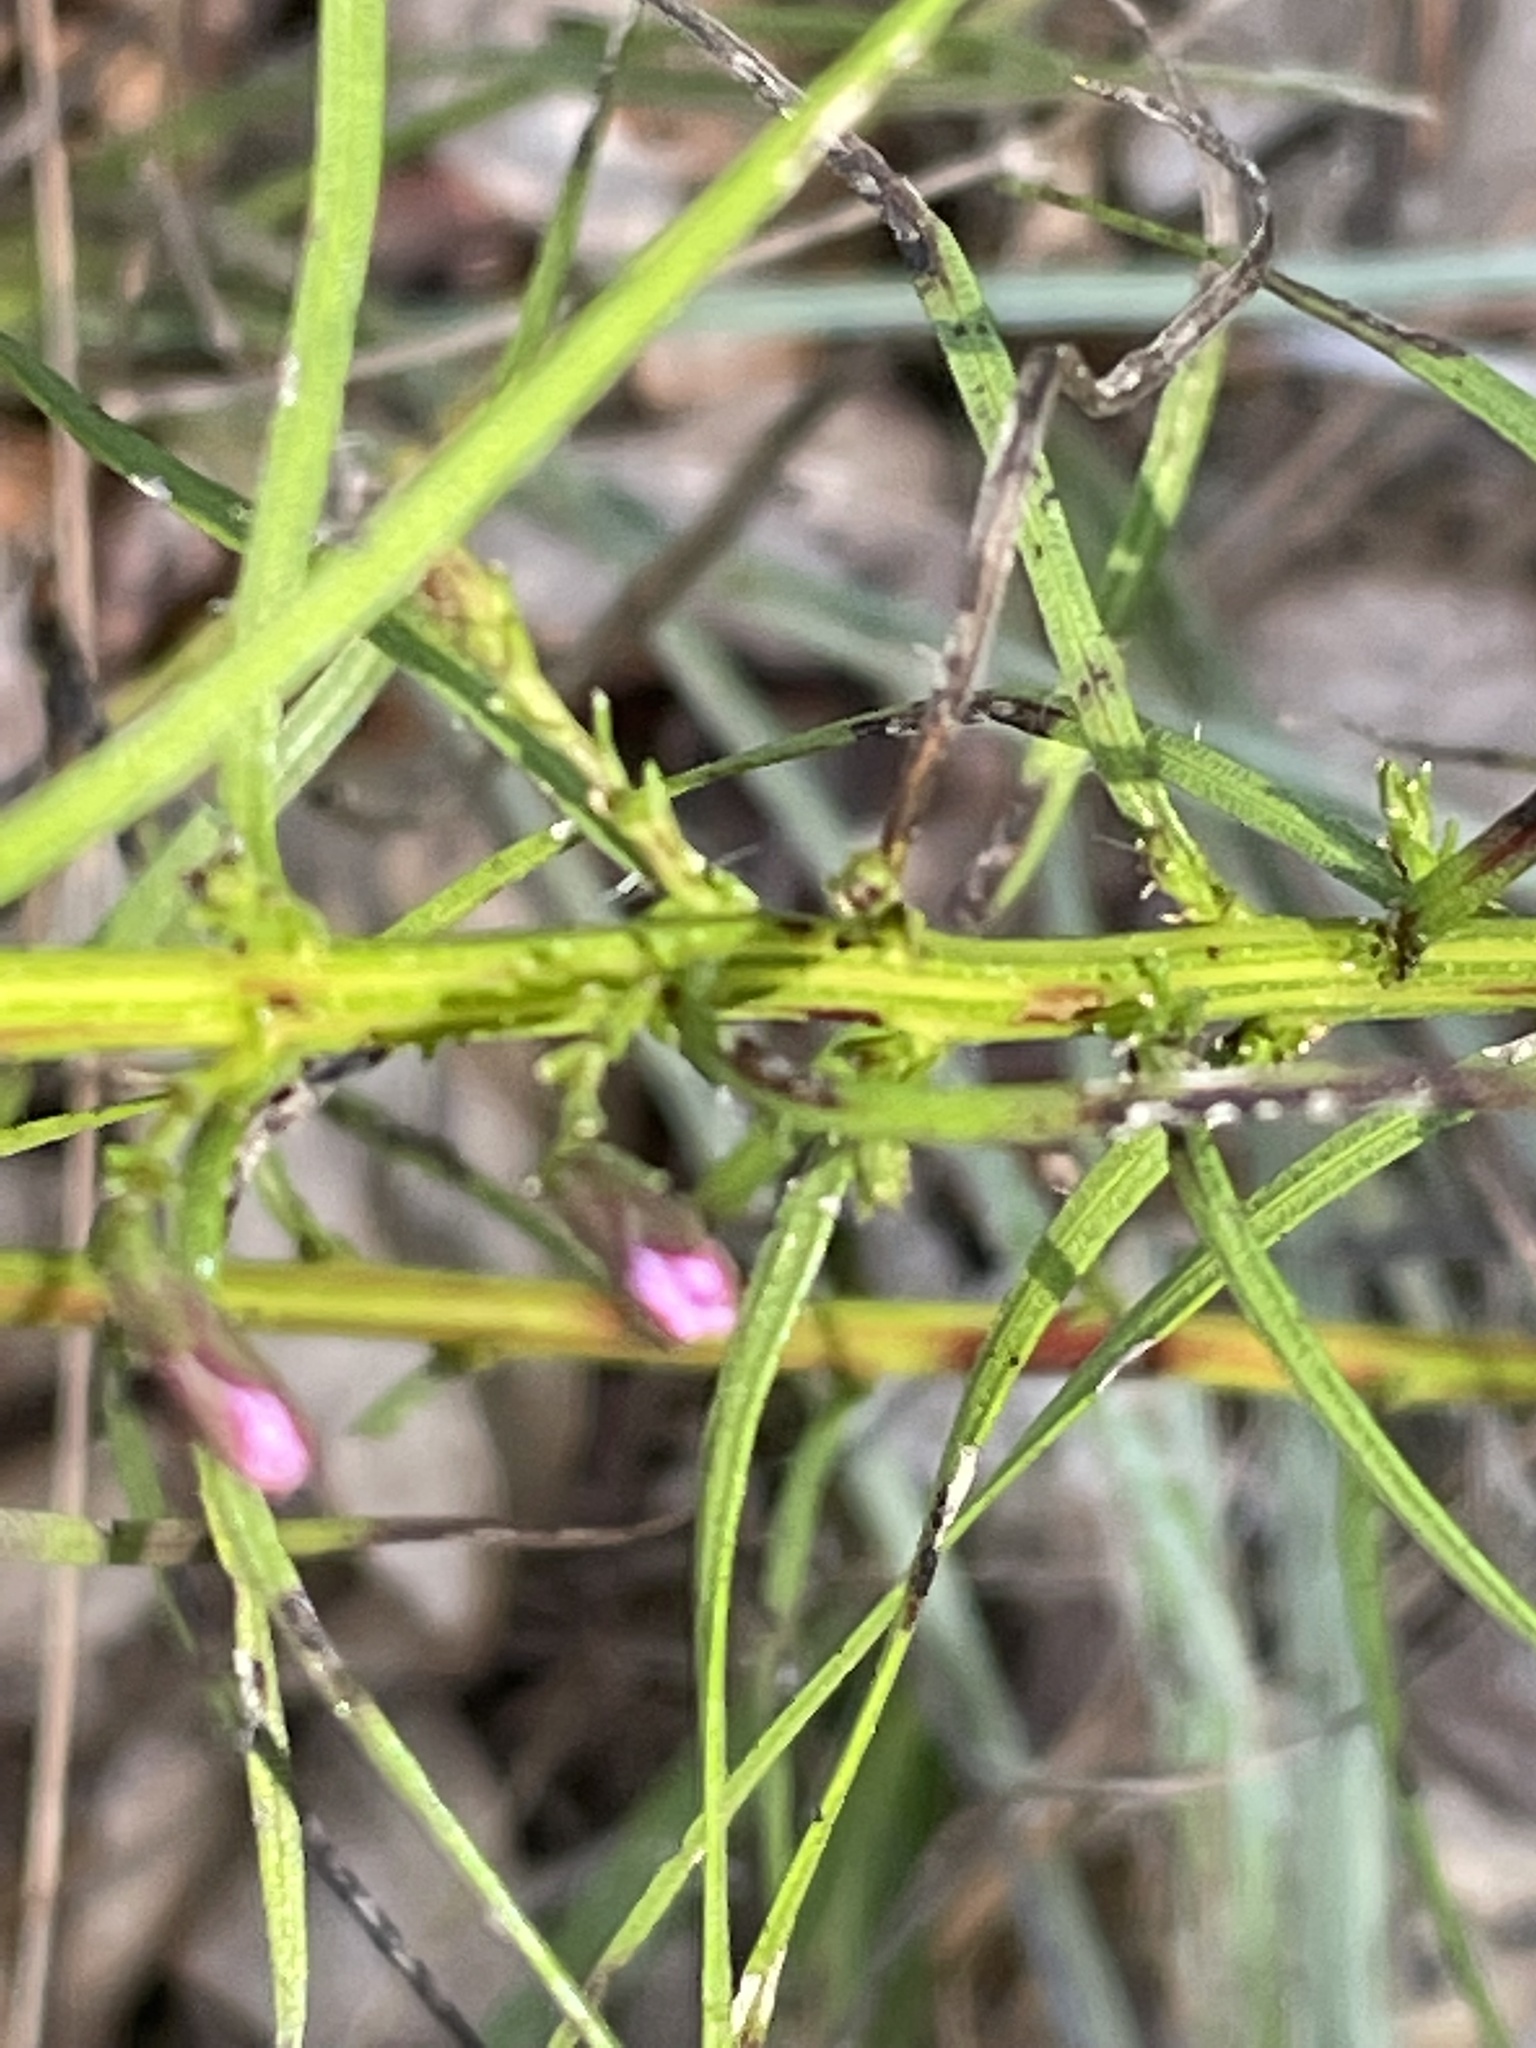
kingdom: Plantae
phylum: Tracheophyta
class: Magnoliopsida
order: Asterales
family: Asteraceae
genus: Liatris
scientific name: Liatris cokeri
